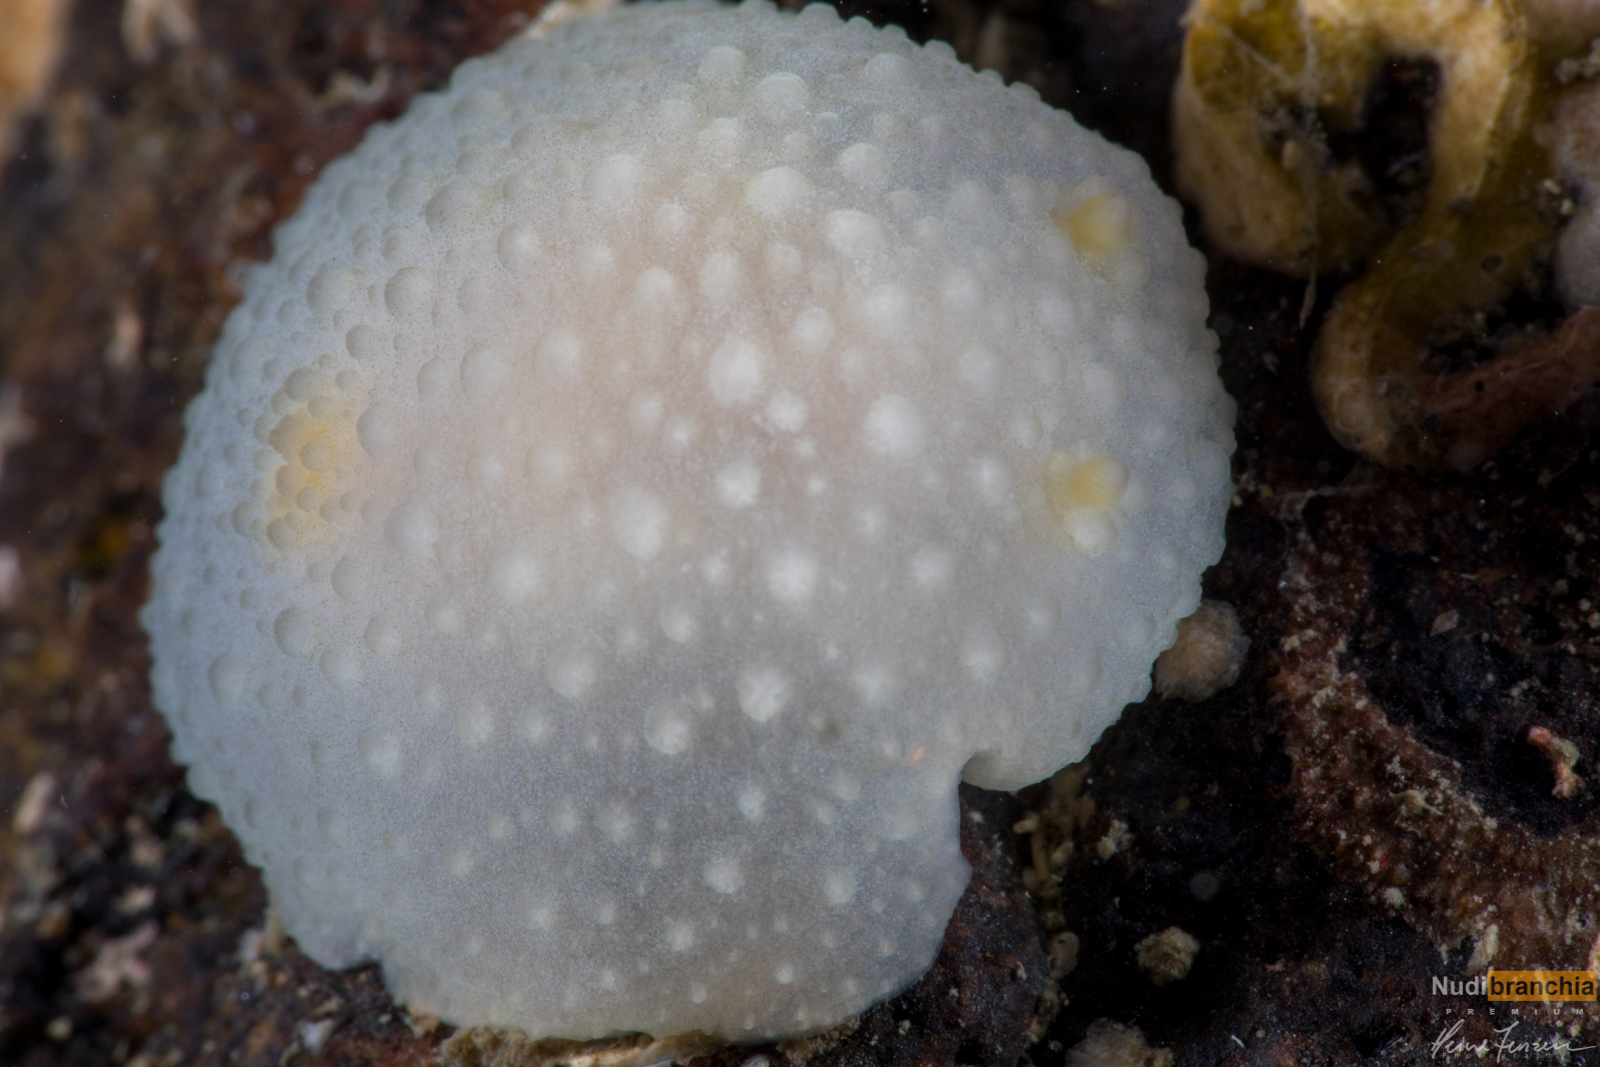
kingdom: Animalia
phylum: Mollusca
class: Gastropoda
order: Nudibranchia
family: Cadlinidae
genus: Aldisa
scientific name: Aldisa zetlandica
